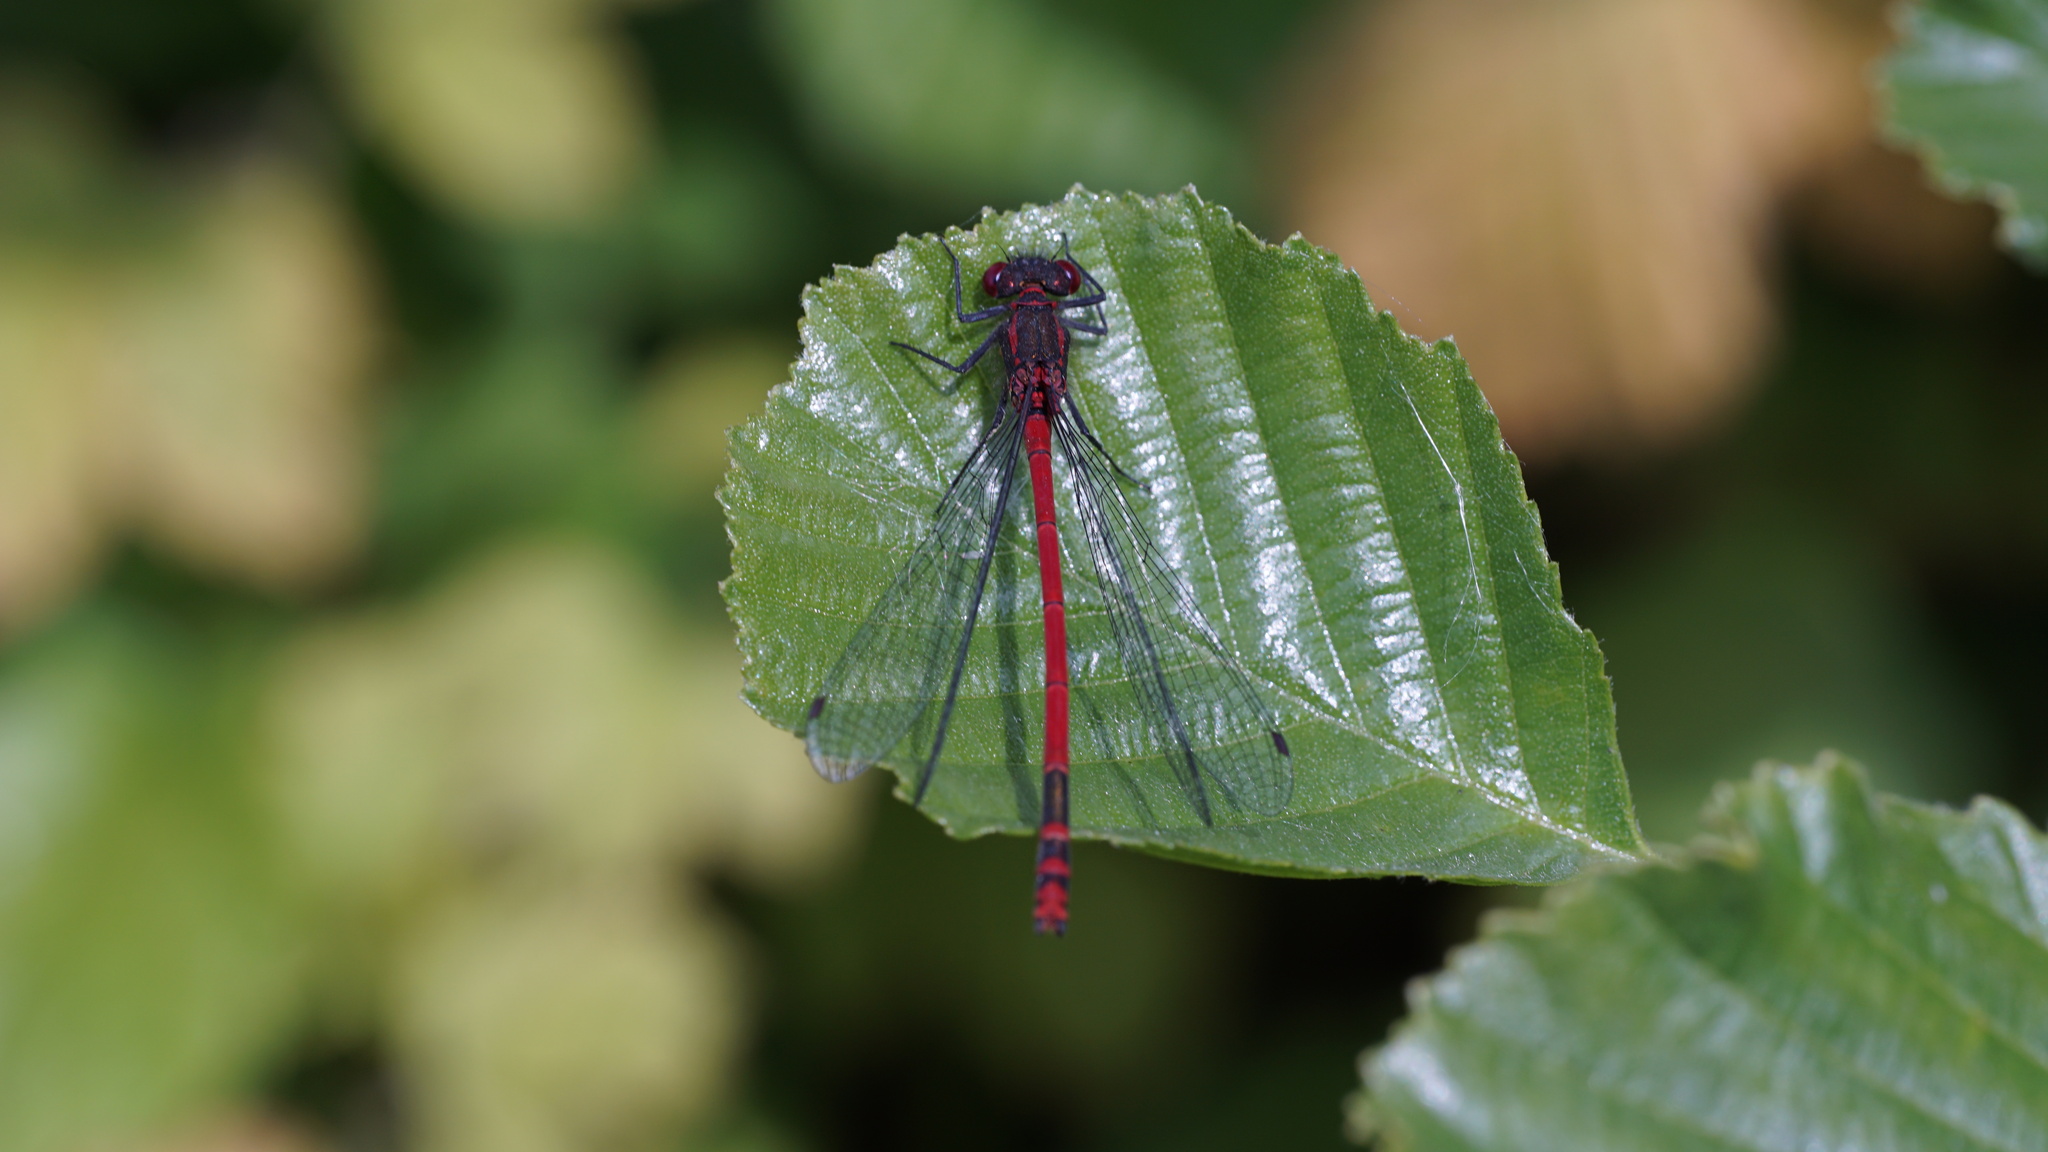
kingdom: Animalia
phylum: Arthropoda
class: Insecta
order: Odonata
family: Coenagrionidae
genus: Pyrrhosoma
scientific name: Pyrrhosoma nymphula
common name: Large red damsel
